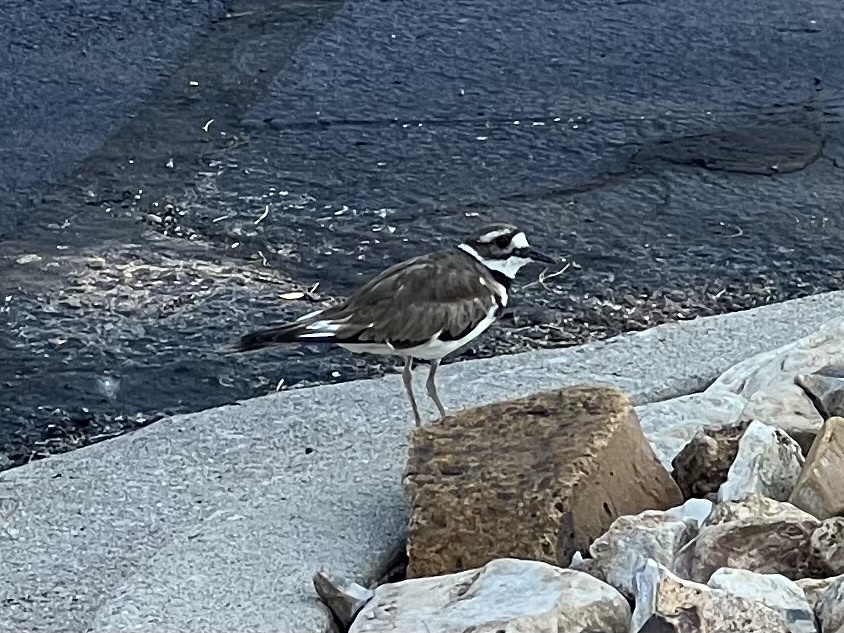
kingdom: Animalia
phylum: Chordata
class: Aves
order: Charadriiformes
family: Charadriidae
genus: Charadrius
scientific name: Charadrius vociferus
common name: Killdeer
